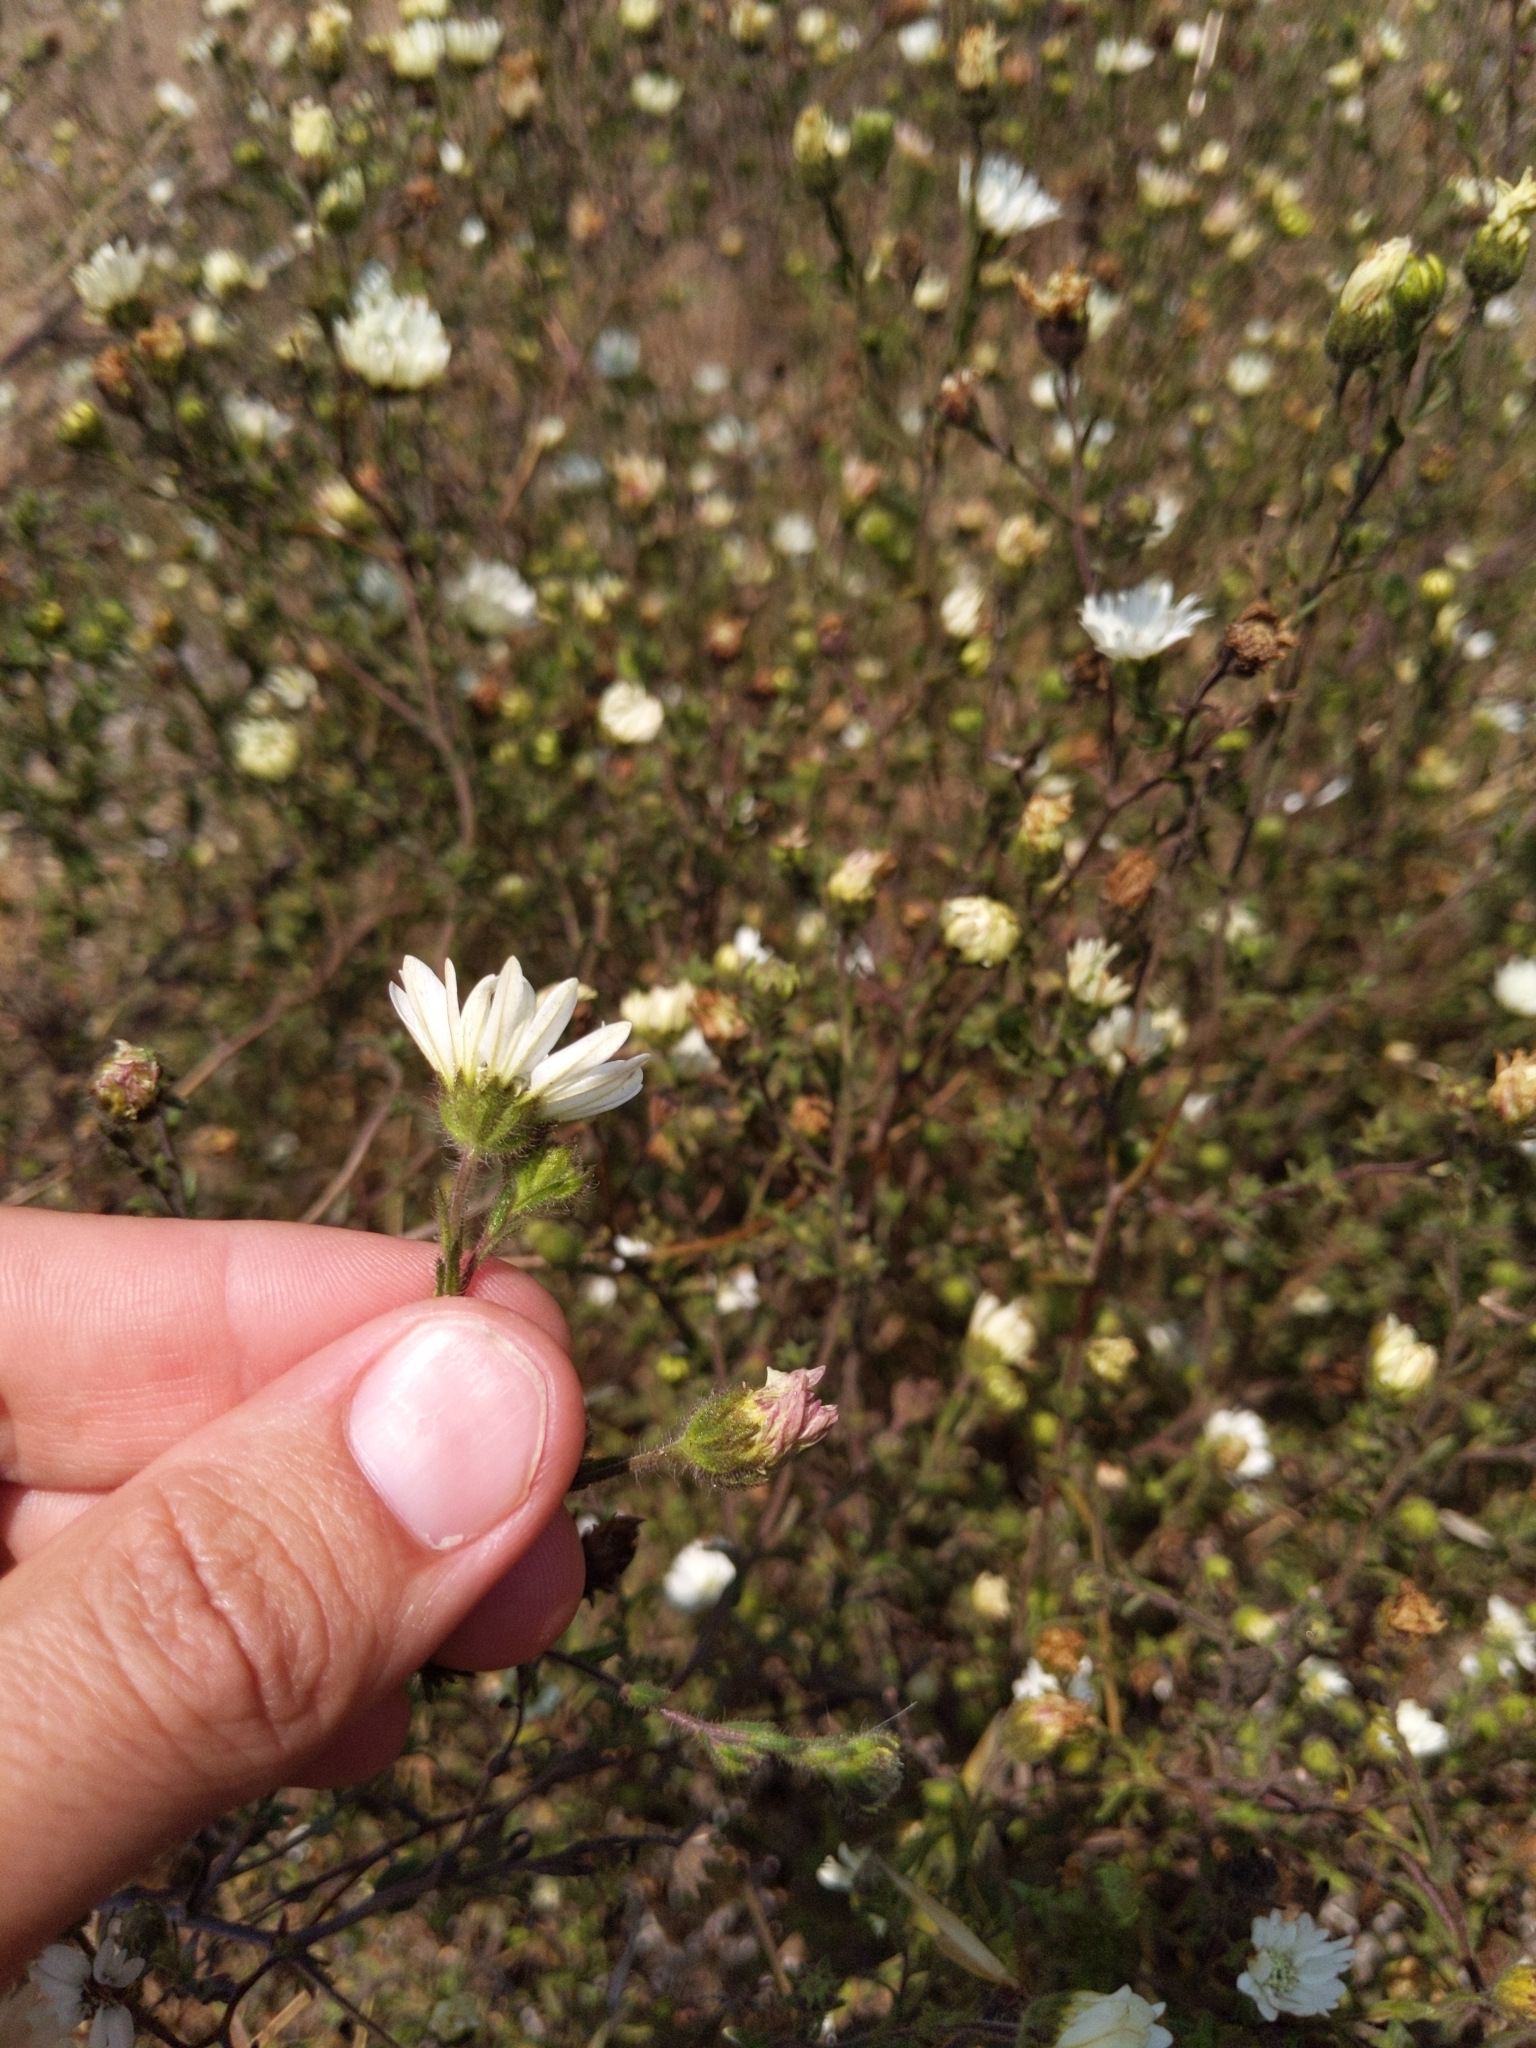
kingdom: Plantae
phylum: Tracheophyta
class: Magnoliopsida
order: Asterales
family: Asteraceae
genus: Hemizonia
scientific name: Hemizonia congesta
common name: Hayfield tarweed
